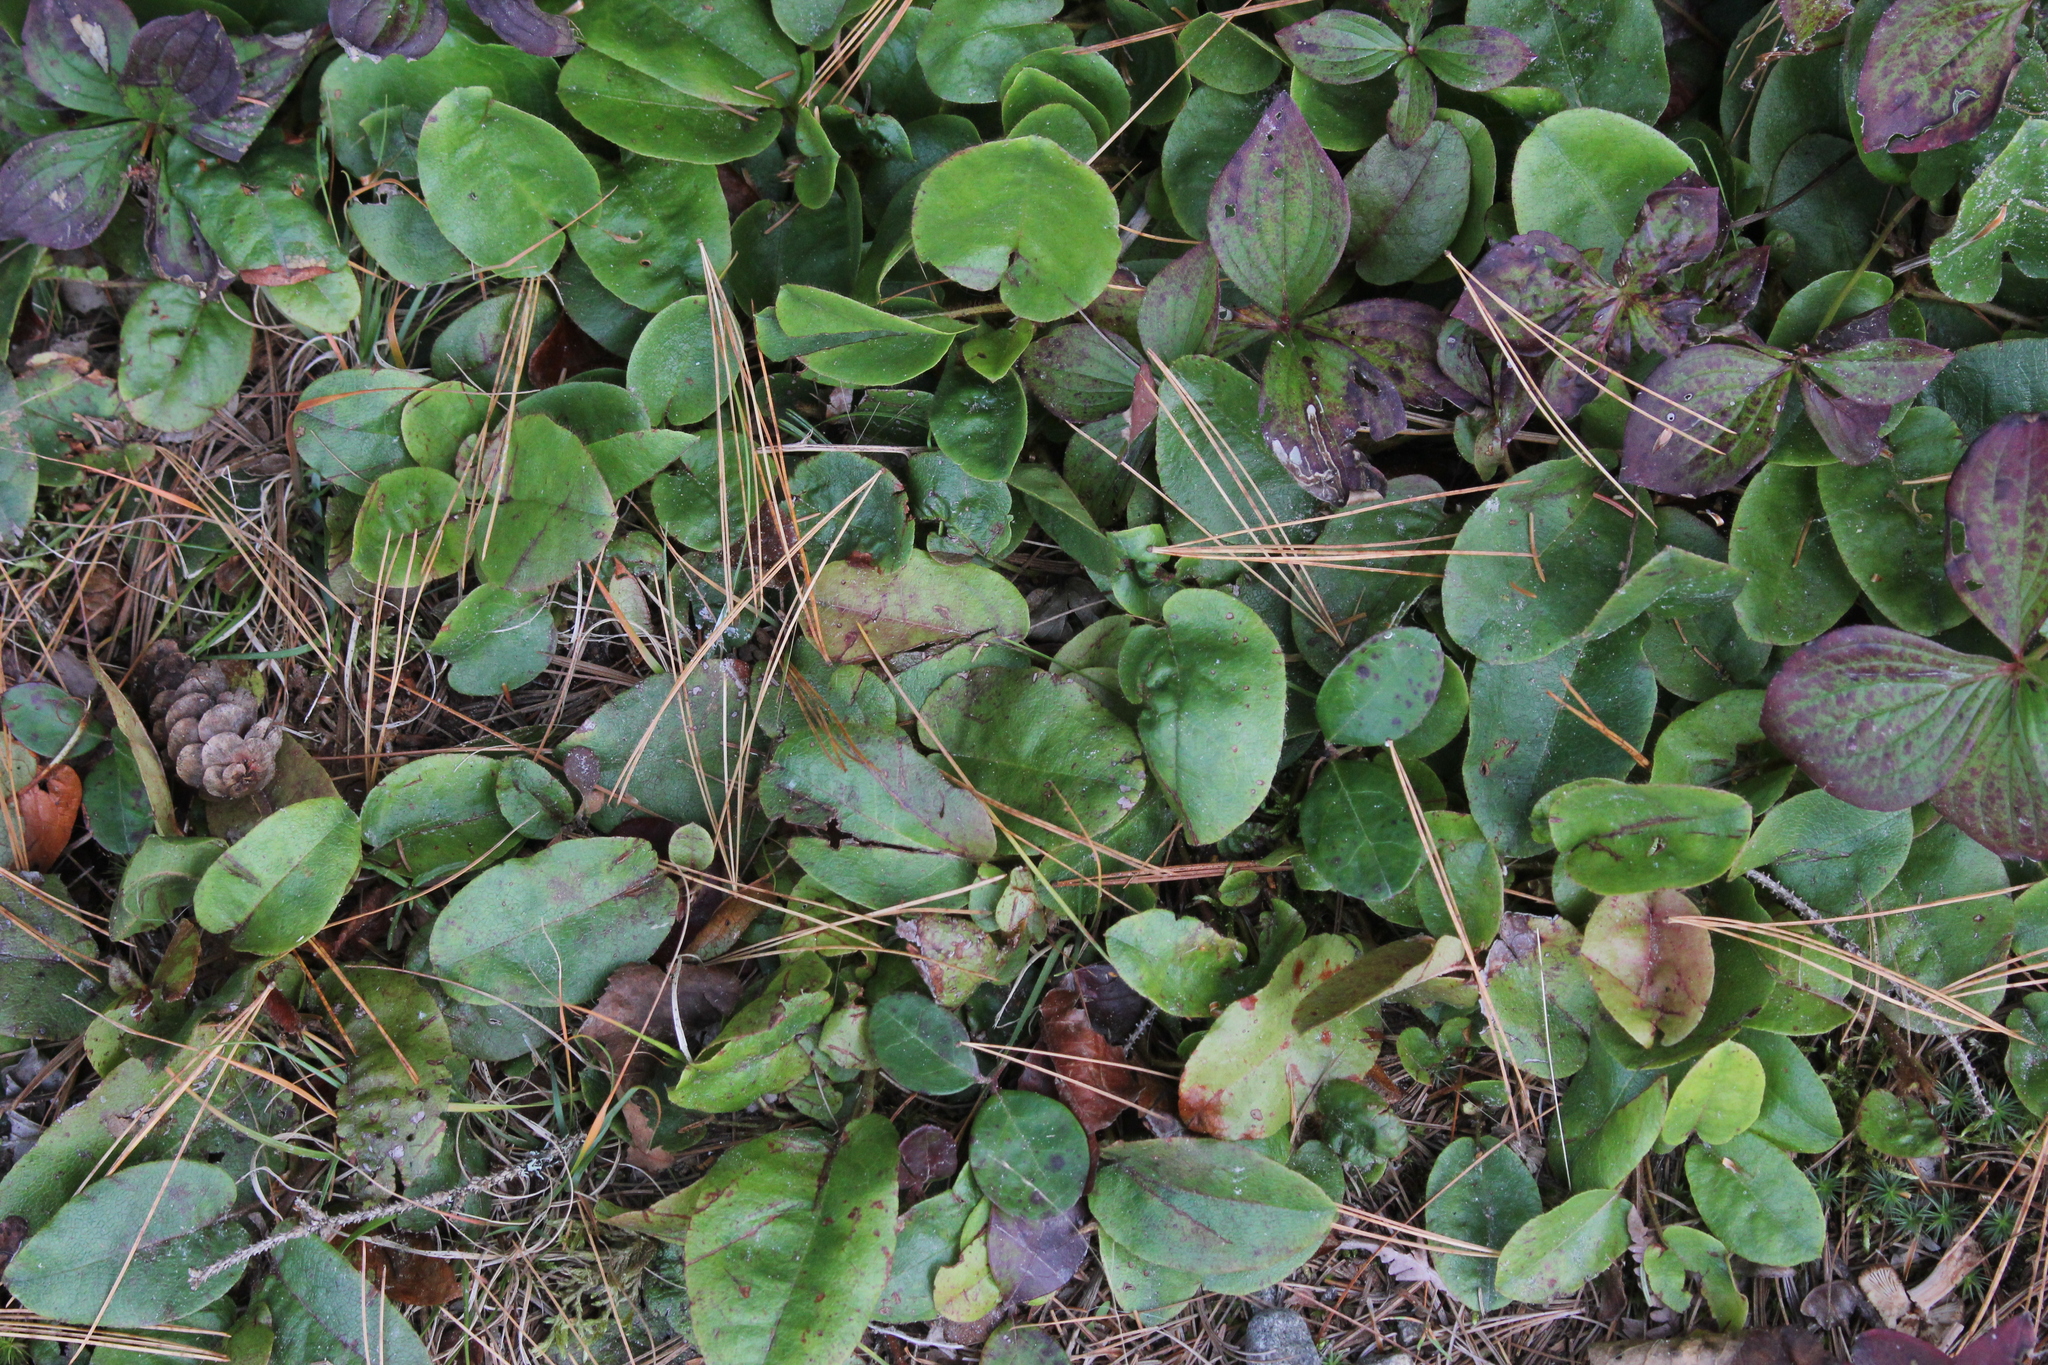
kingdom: Plantae
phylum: Tracheophyta
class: Magnoliopsida
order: Ericales
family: Ericaceae
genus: Epigaea
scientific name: Epigaea repens
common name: Gravelroot
